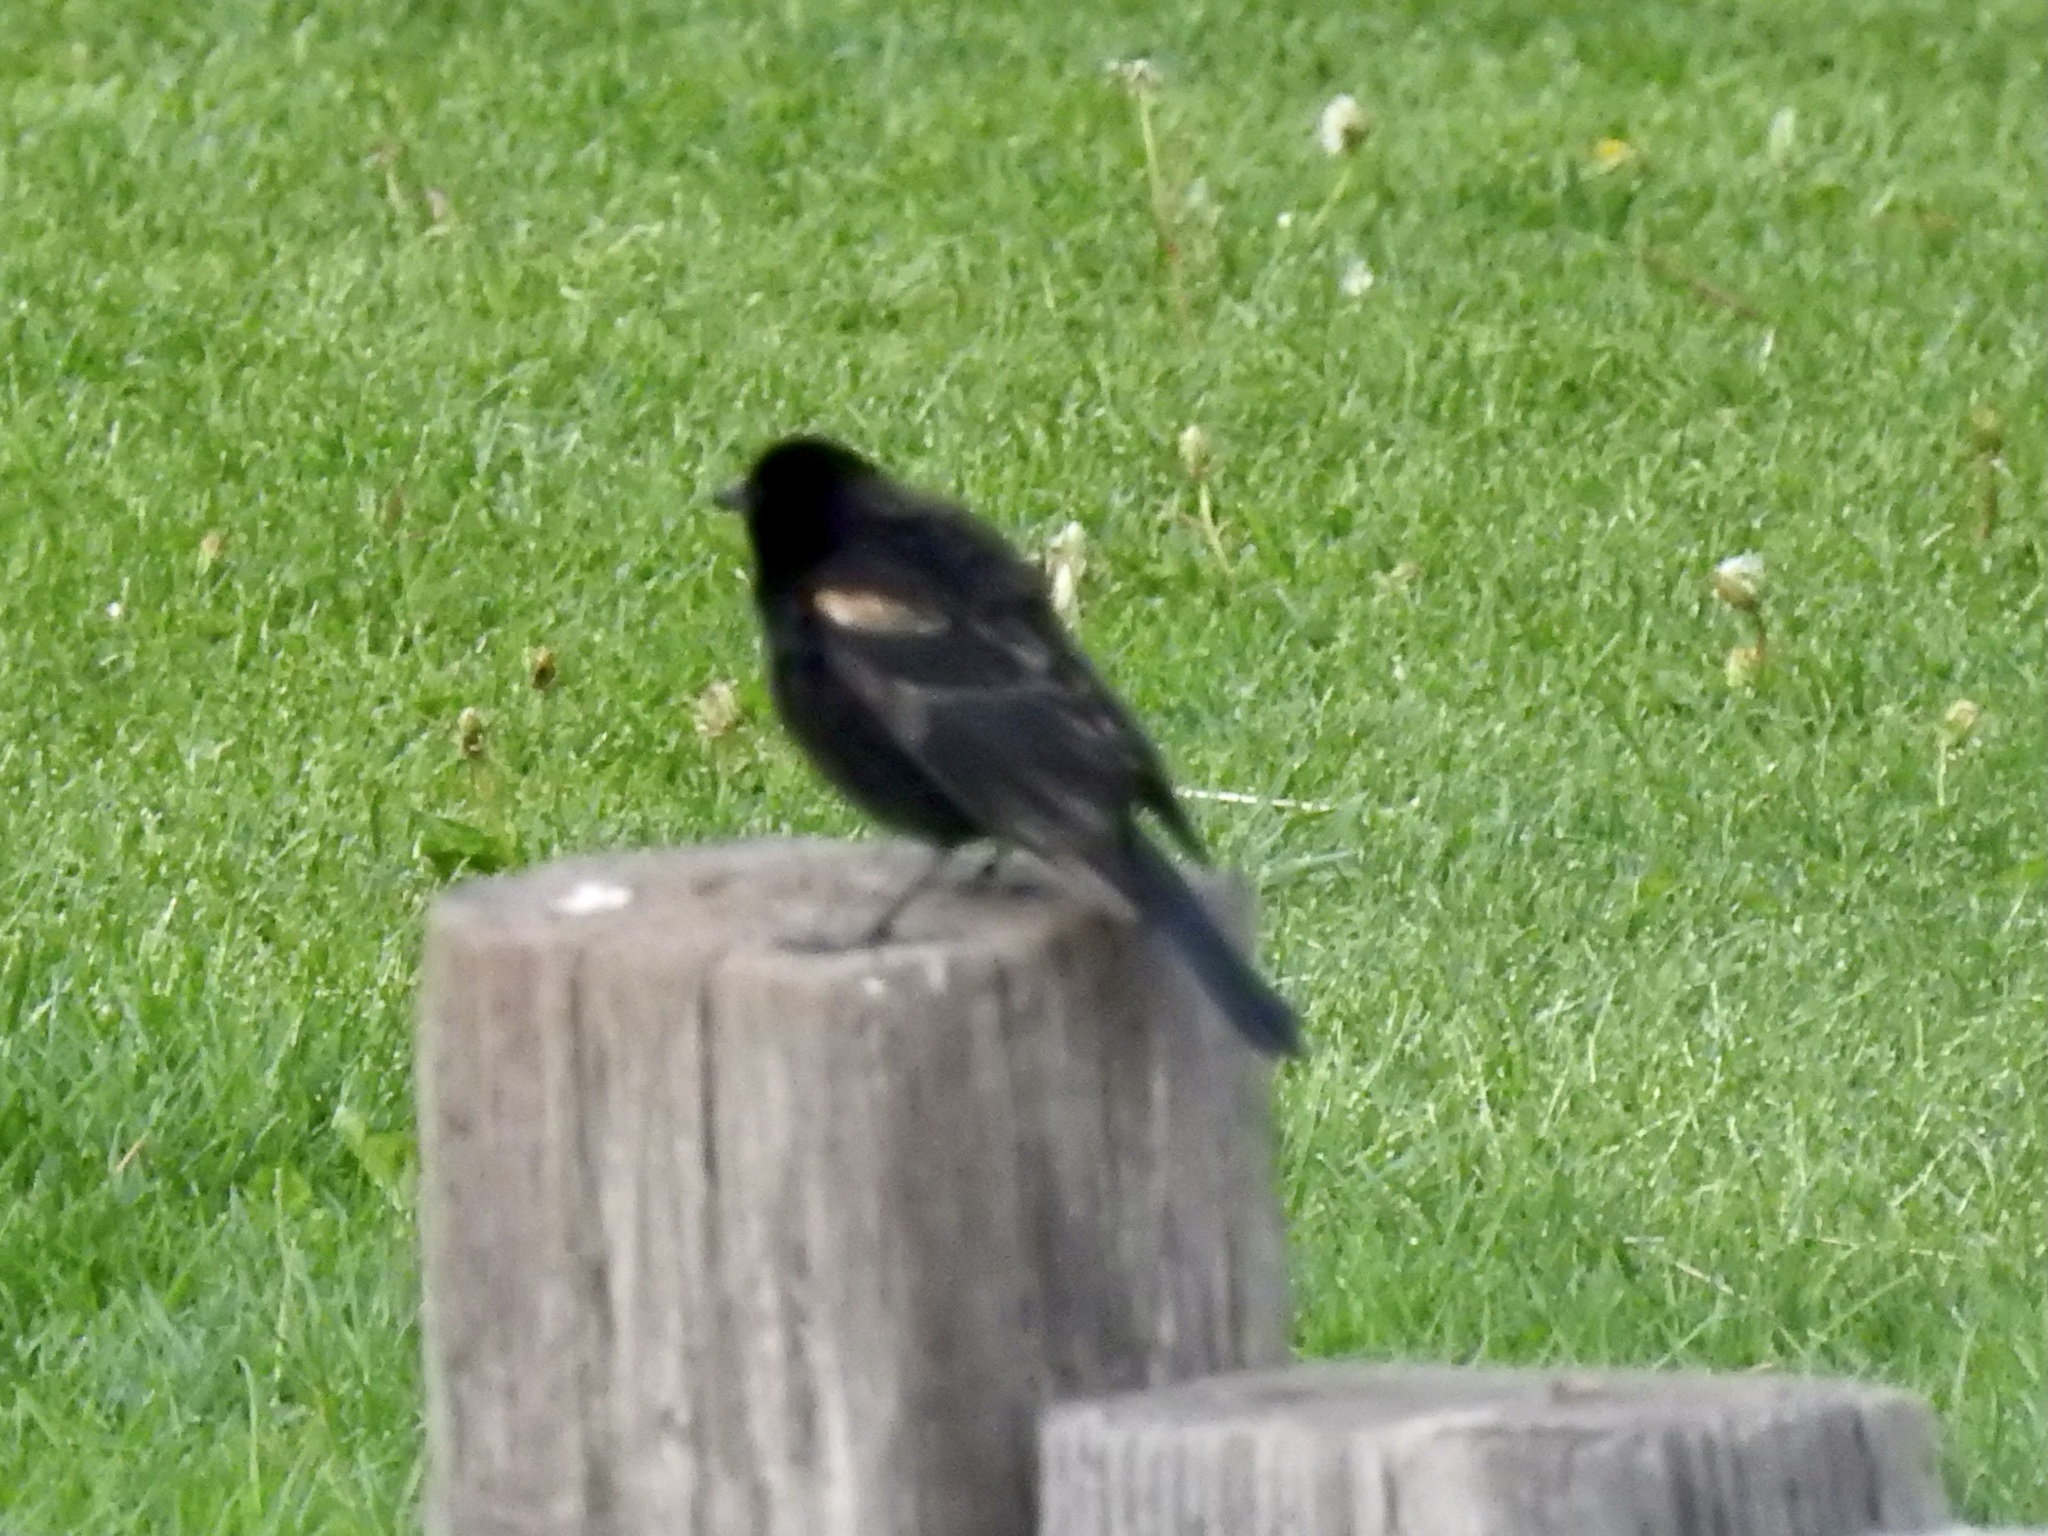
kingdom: Animalia
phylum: Chordata
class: Aves
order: Passeriformes
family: Icteridae
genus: Agelaius
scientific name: Agelaius phoeniceus
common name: Red-winged blackbird
